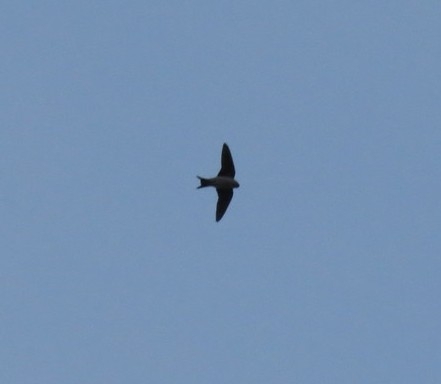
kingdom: Animalia
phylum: Chordata
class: Aves
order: Passeriformes
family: Hirundinidae
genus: Delichon
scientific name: Delichon urbicum
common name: Common house martin
